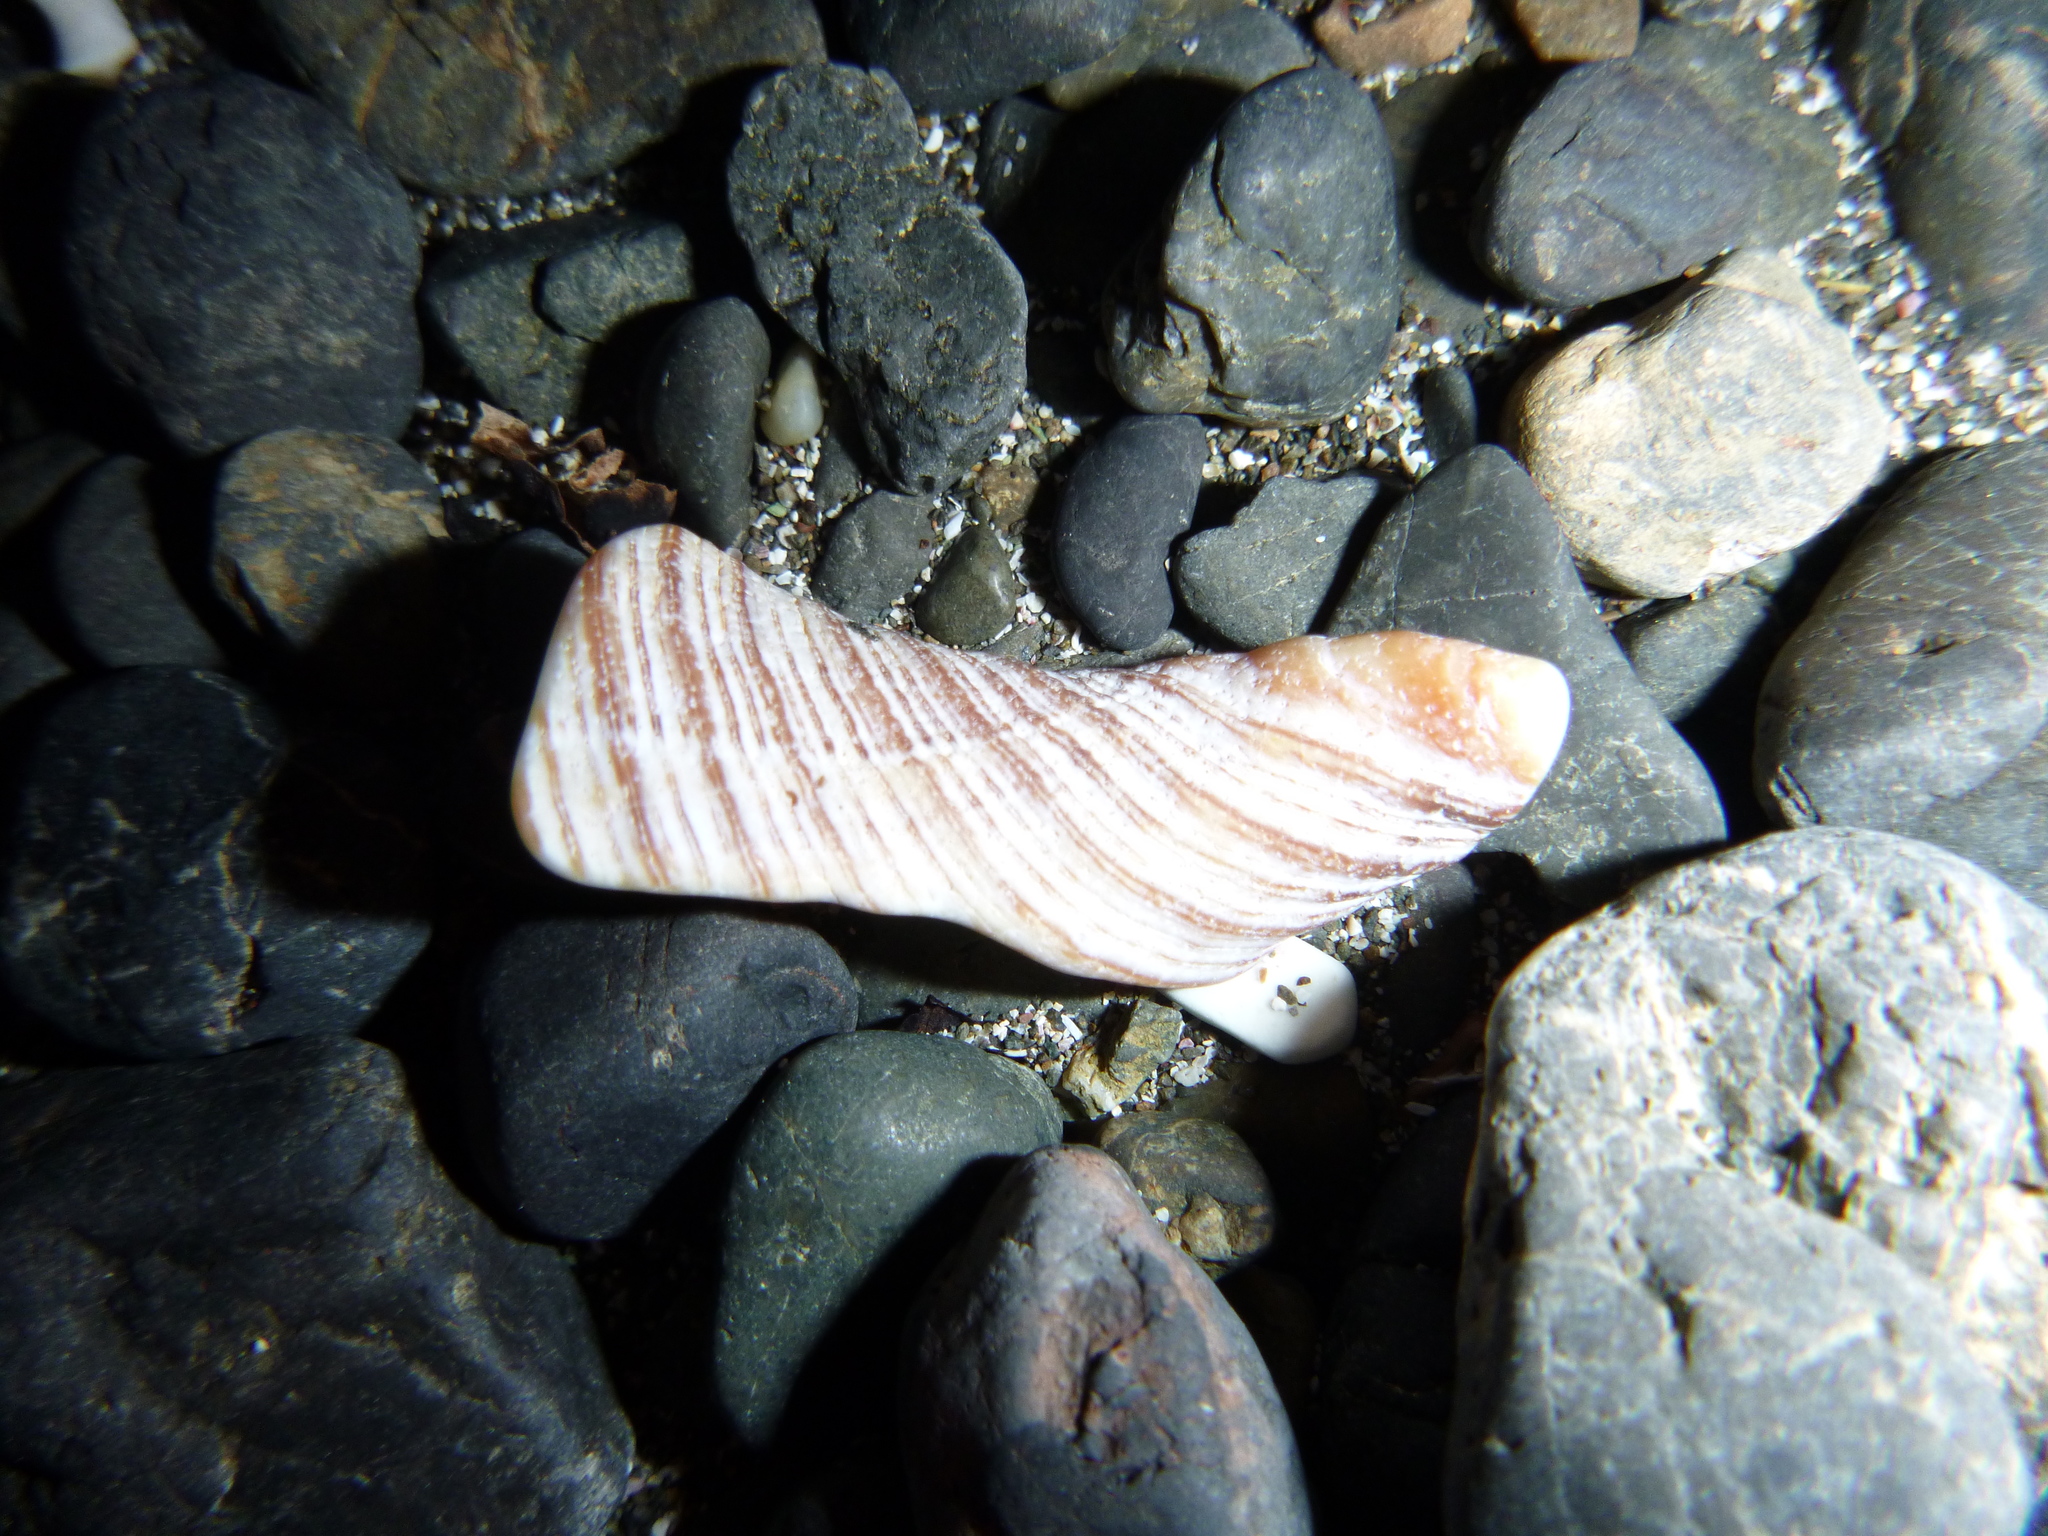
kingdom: Animalia
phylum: Mollusca
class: Gastropoda
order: Neogastropoda
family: Austrosiphonidae
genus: Penion
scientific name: Penion sulcatus
